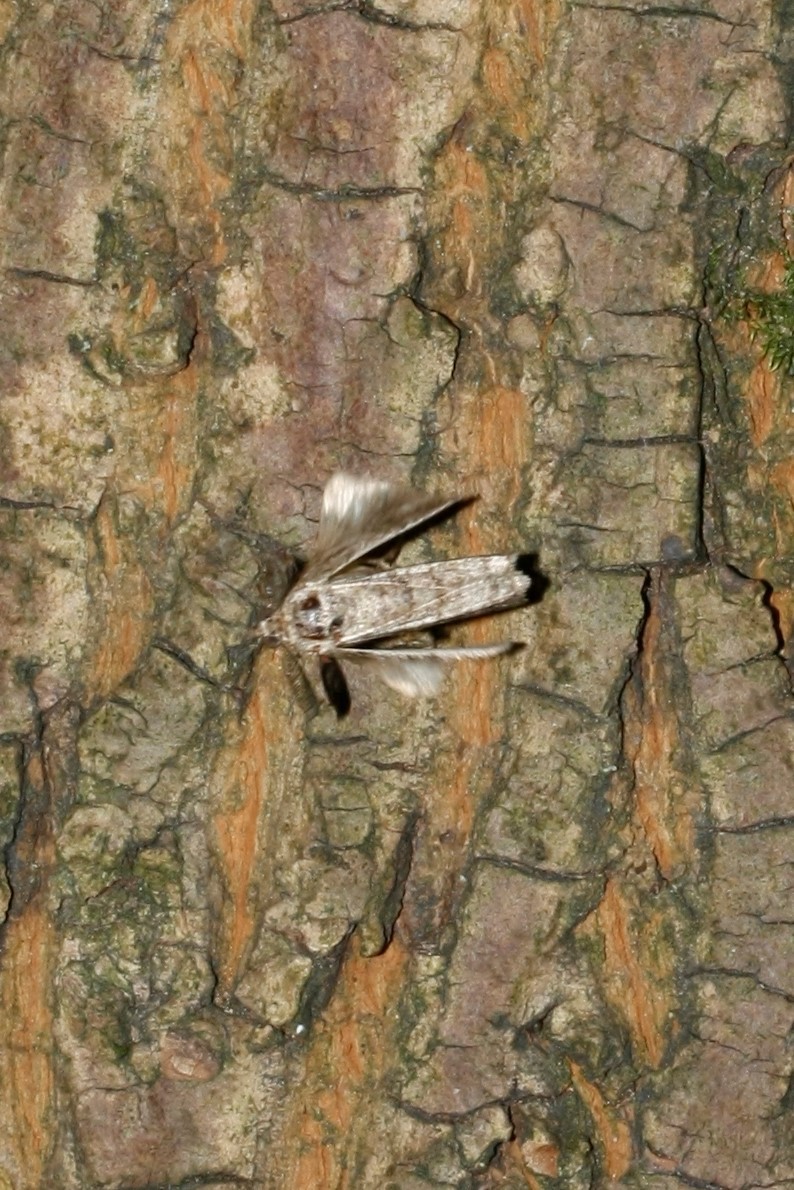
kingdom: Animalia
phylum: Arthropoda
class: Insecta
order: Lepidoptera
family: Geometridae
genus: Peribatodes
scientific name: Peribatodes rhomboidaria
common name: Willow beauty
